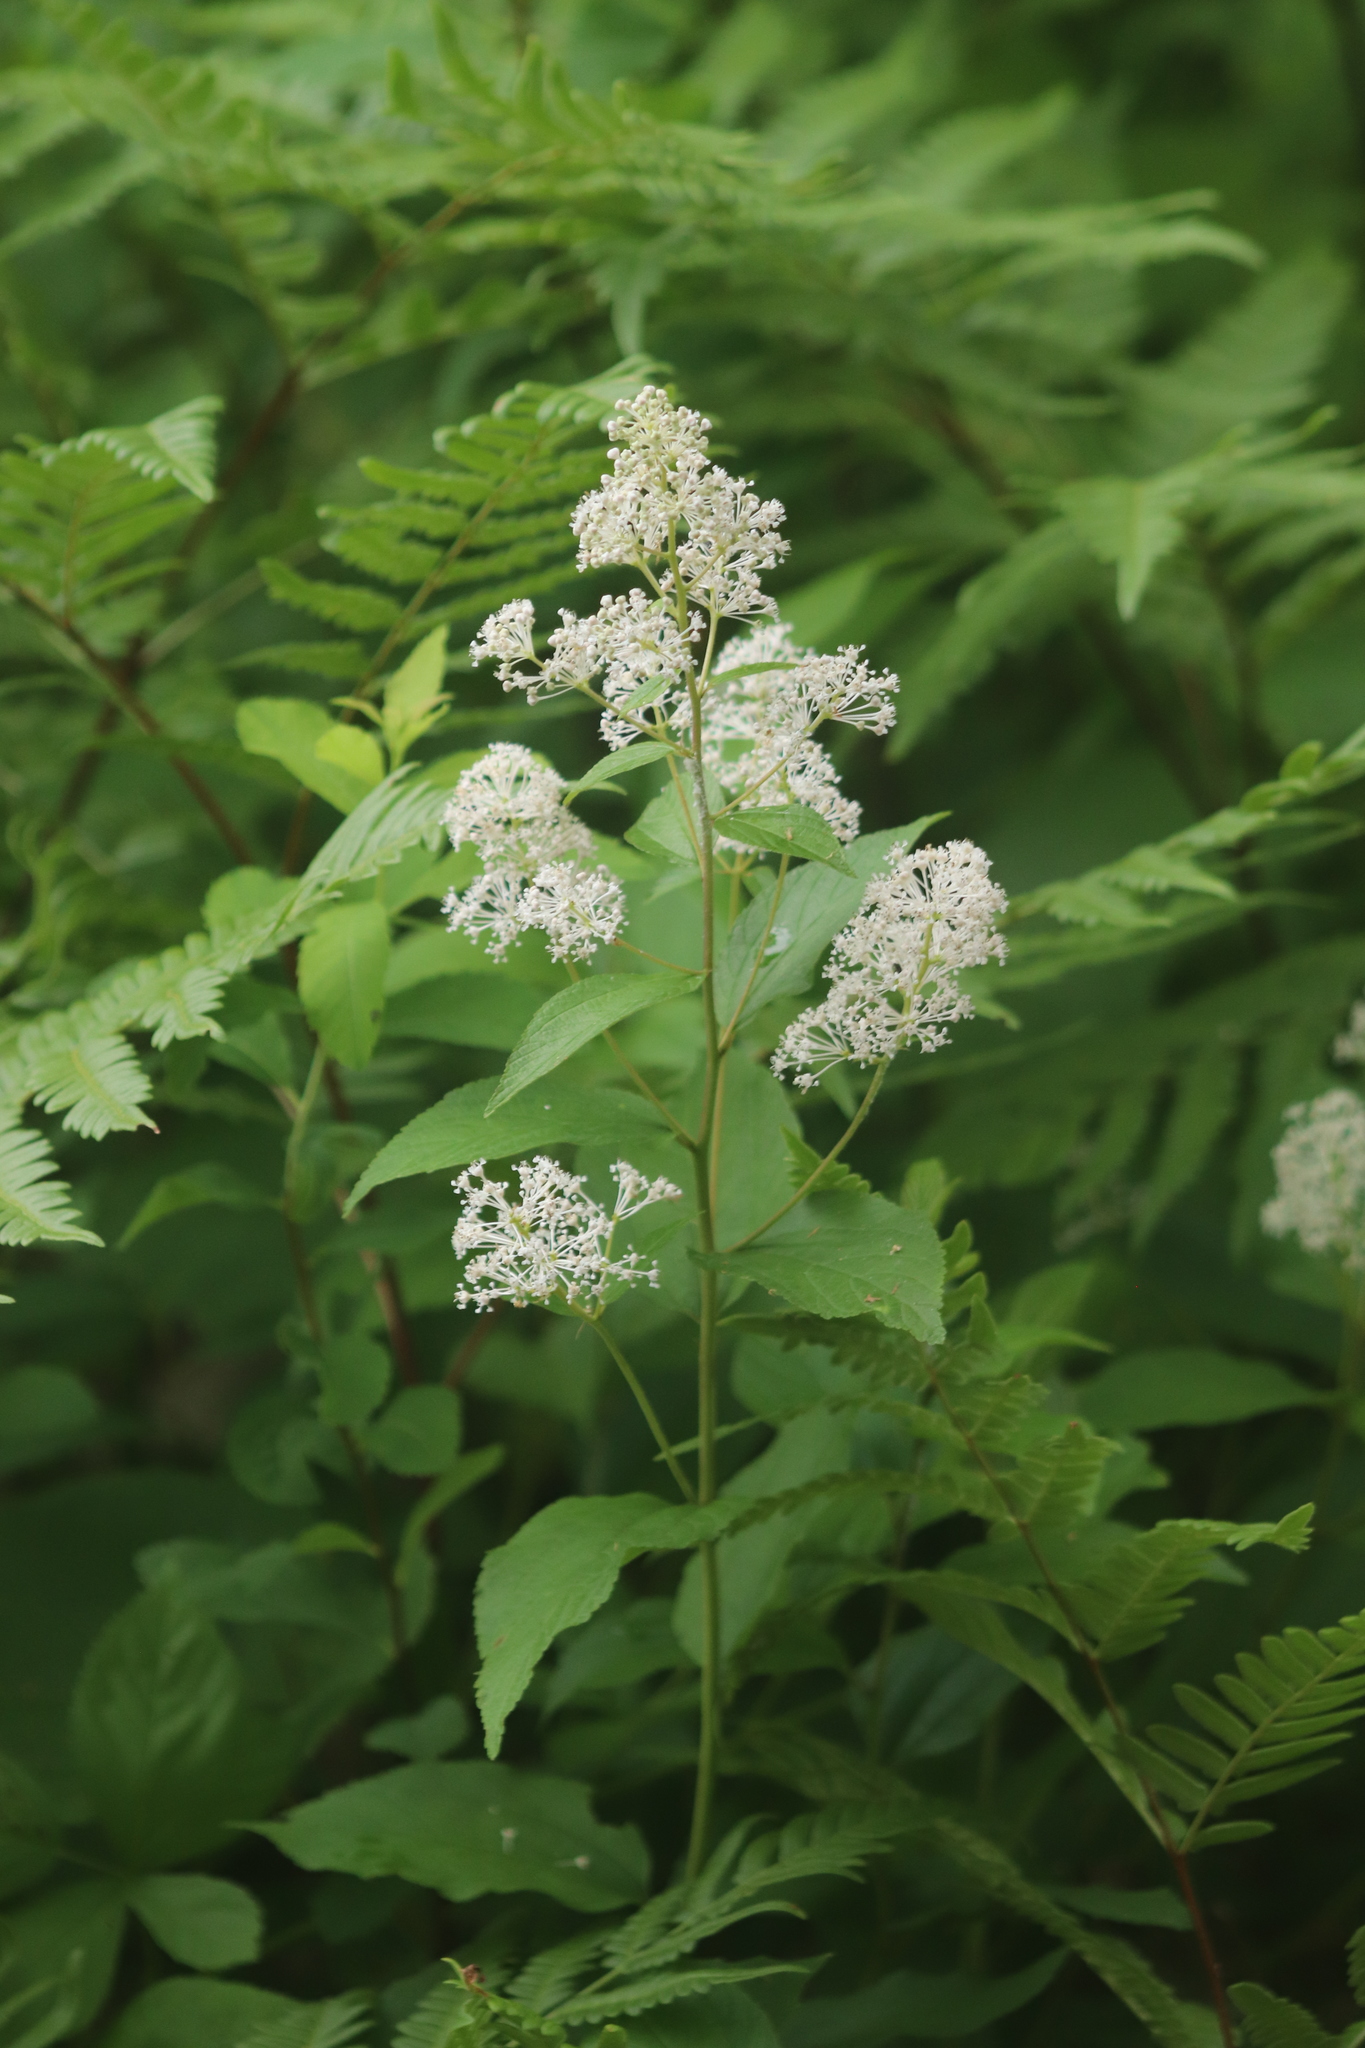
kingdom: Plantae
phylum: Tracheophyta
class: Magnoliopsida
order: Rosales
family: Rhamnaceae
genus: Ceanothus
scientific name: Ceanothus americanus
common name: Redroot
